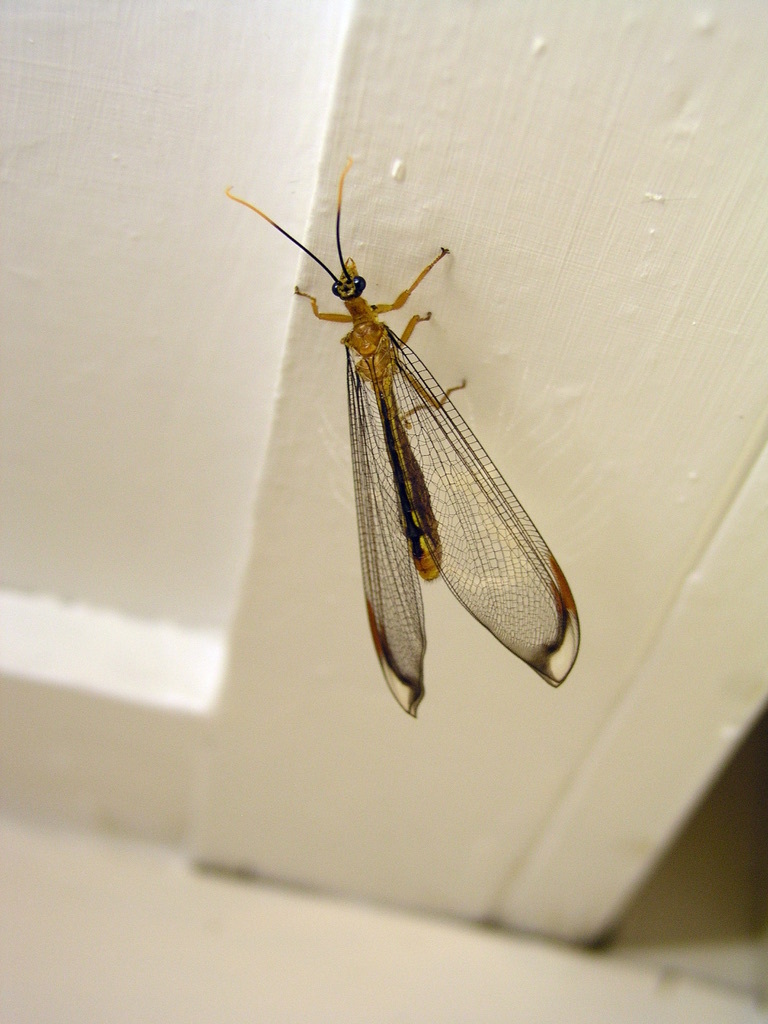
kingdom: Animalia
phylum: Arthropoda
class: Insecta
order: Neuroptera
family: Nymphidae
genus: Nymphes
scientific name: Nymphes myrmeleonoides
